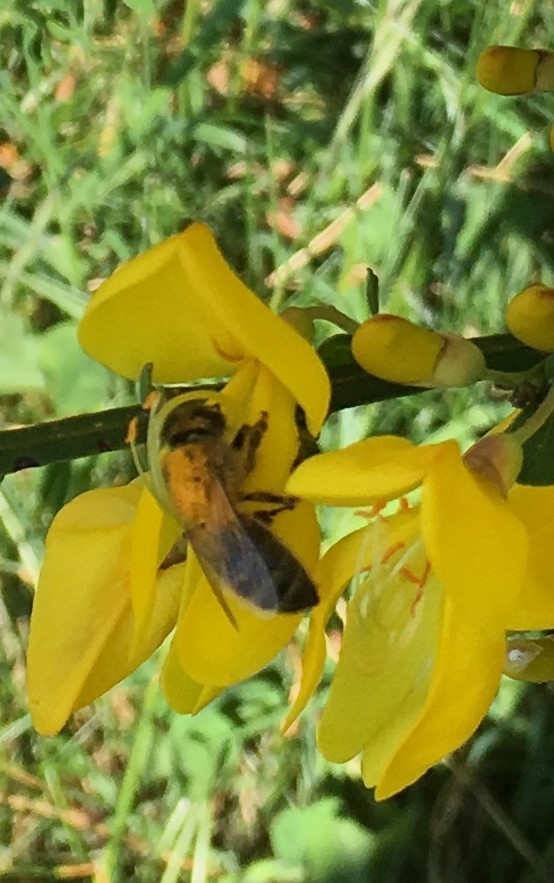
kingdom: Animalia
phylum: Arthropoda
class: Insecta
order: Hymenoptera
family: Apidae
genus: Apis
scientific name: Apis mellifera
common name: Honey bee
